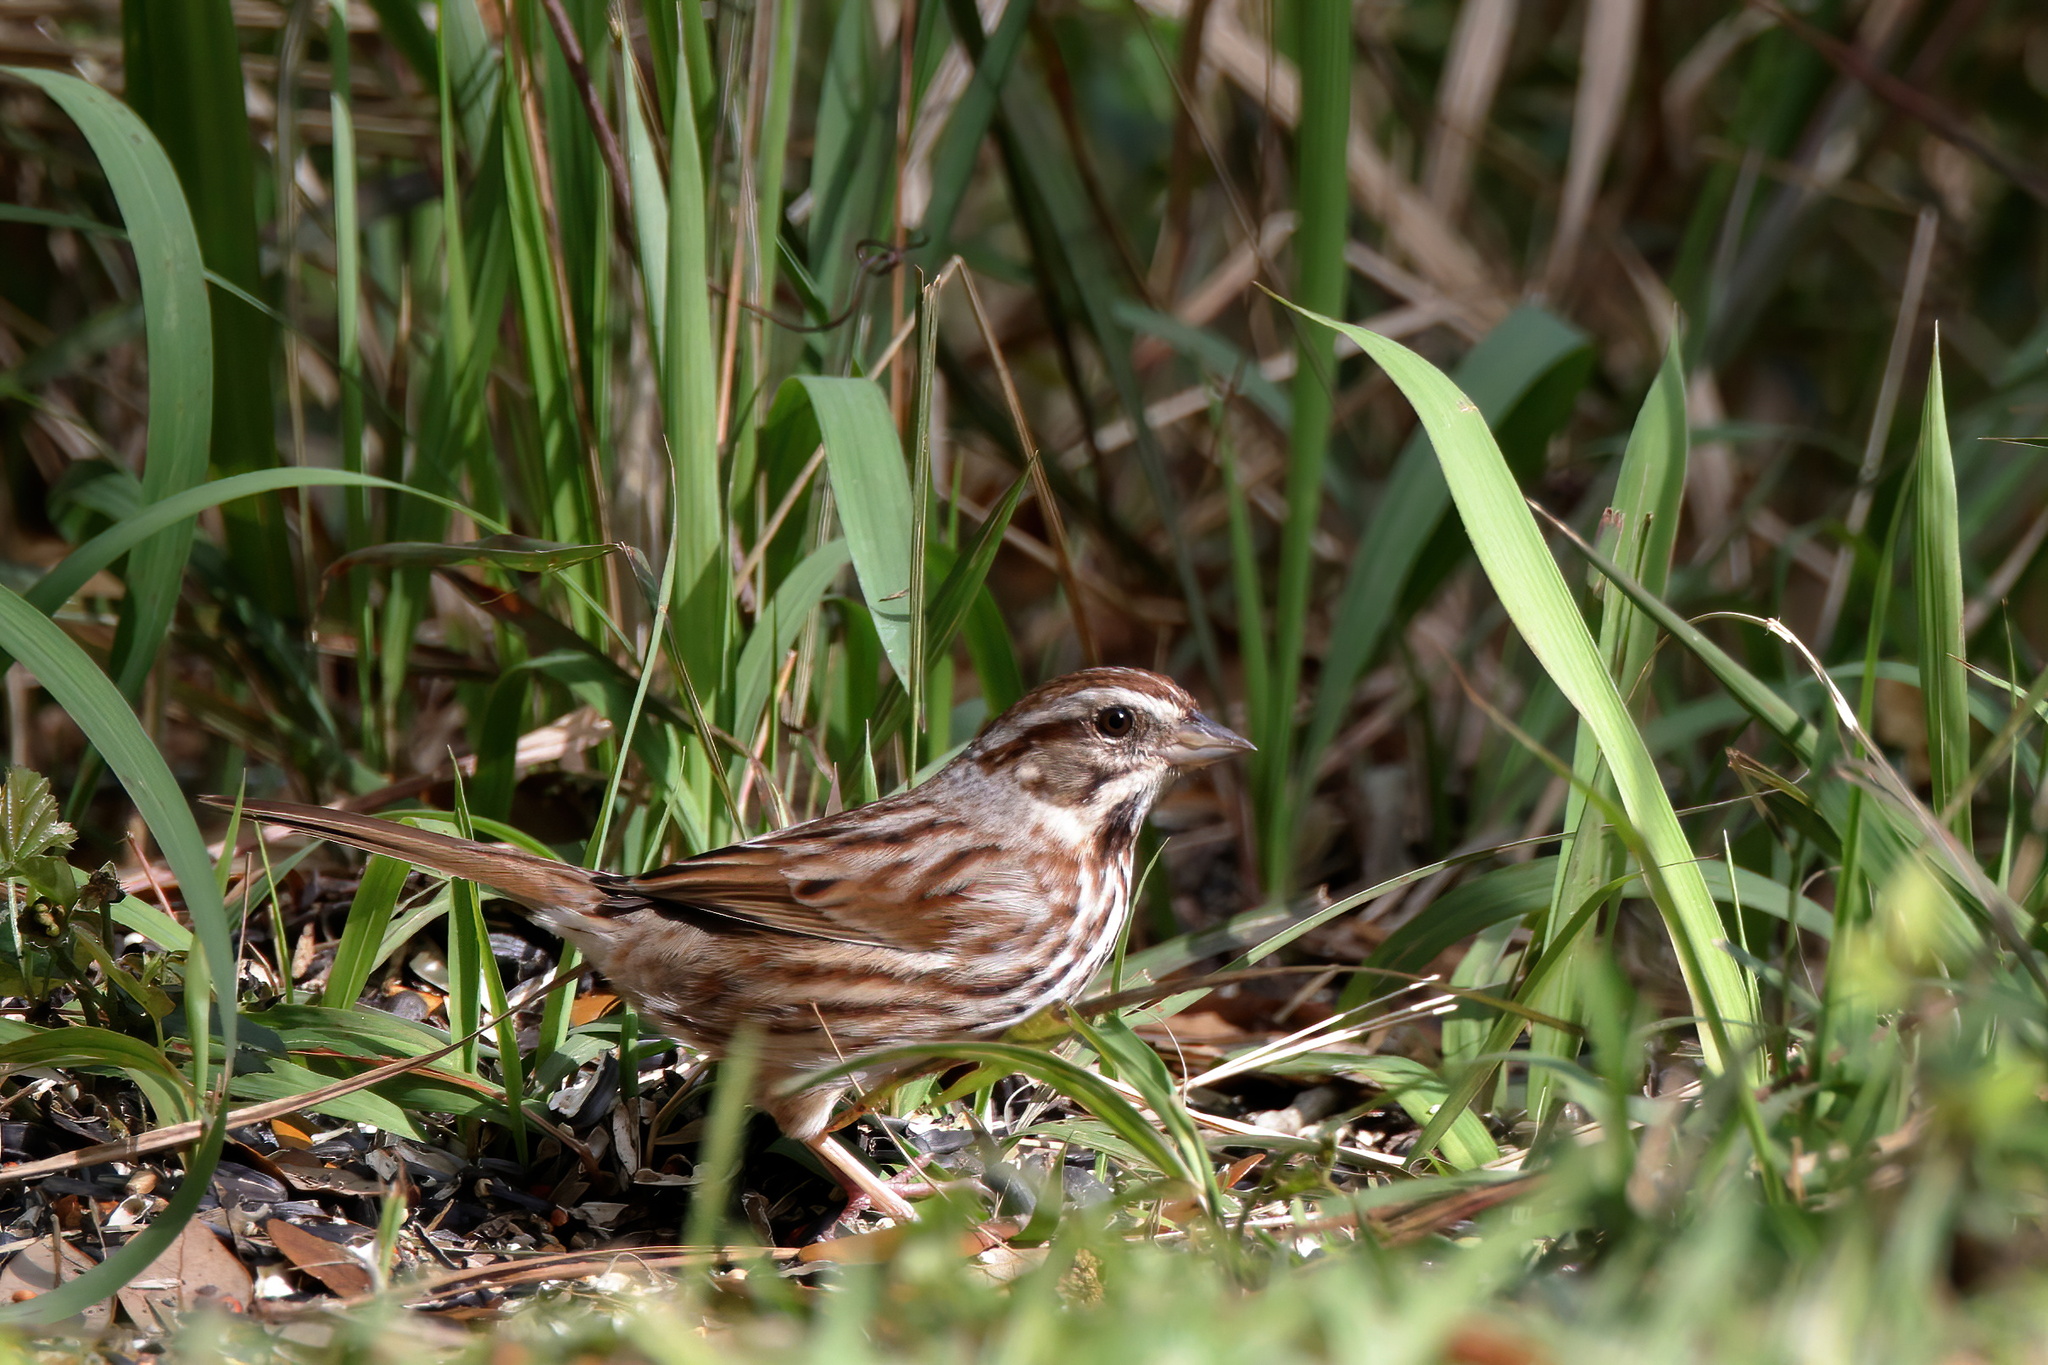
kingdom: Animalia
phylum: Chordata
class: Aves
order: Passeriformes
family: Passerellidae
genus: Melospiza
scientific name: Melospiza melodia
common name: Song sparrow
